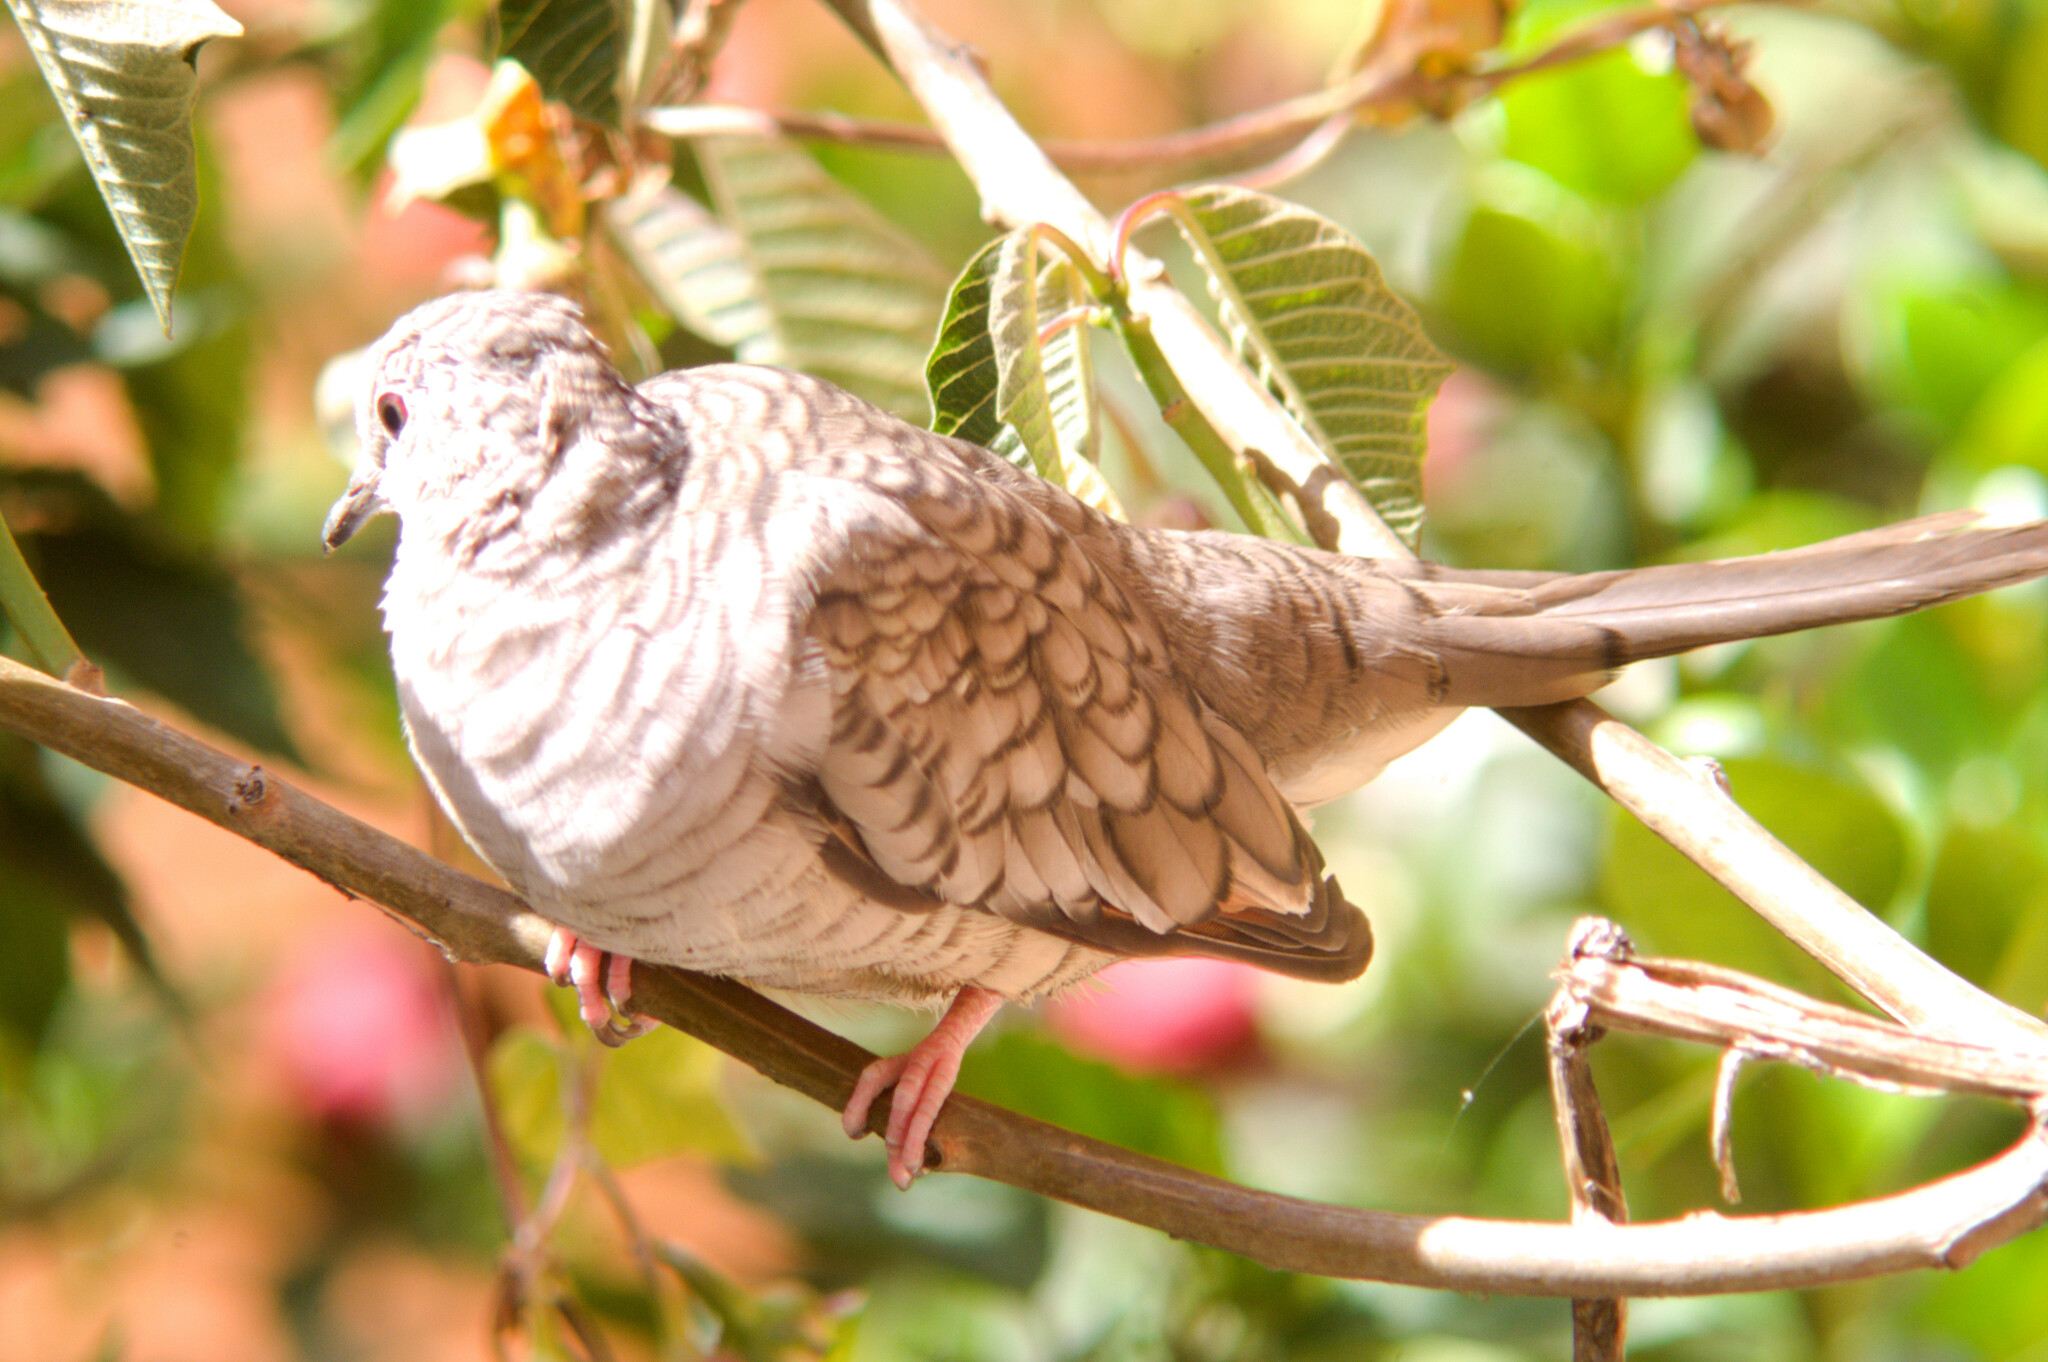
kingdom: Animalia
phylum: Chordata
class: Aves
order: Columbiformes
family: Columbidae
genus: Columbina
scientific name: Columbina inca
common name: Inca dove
